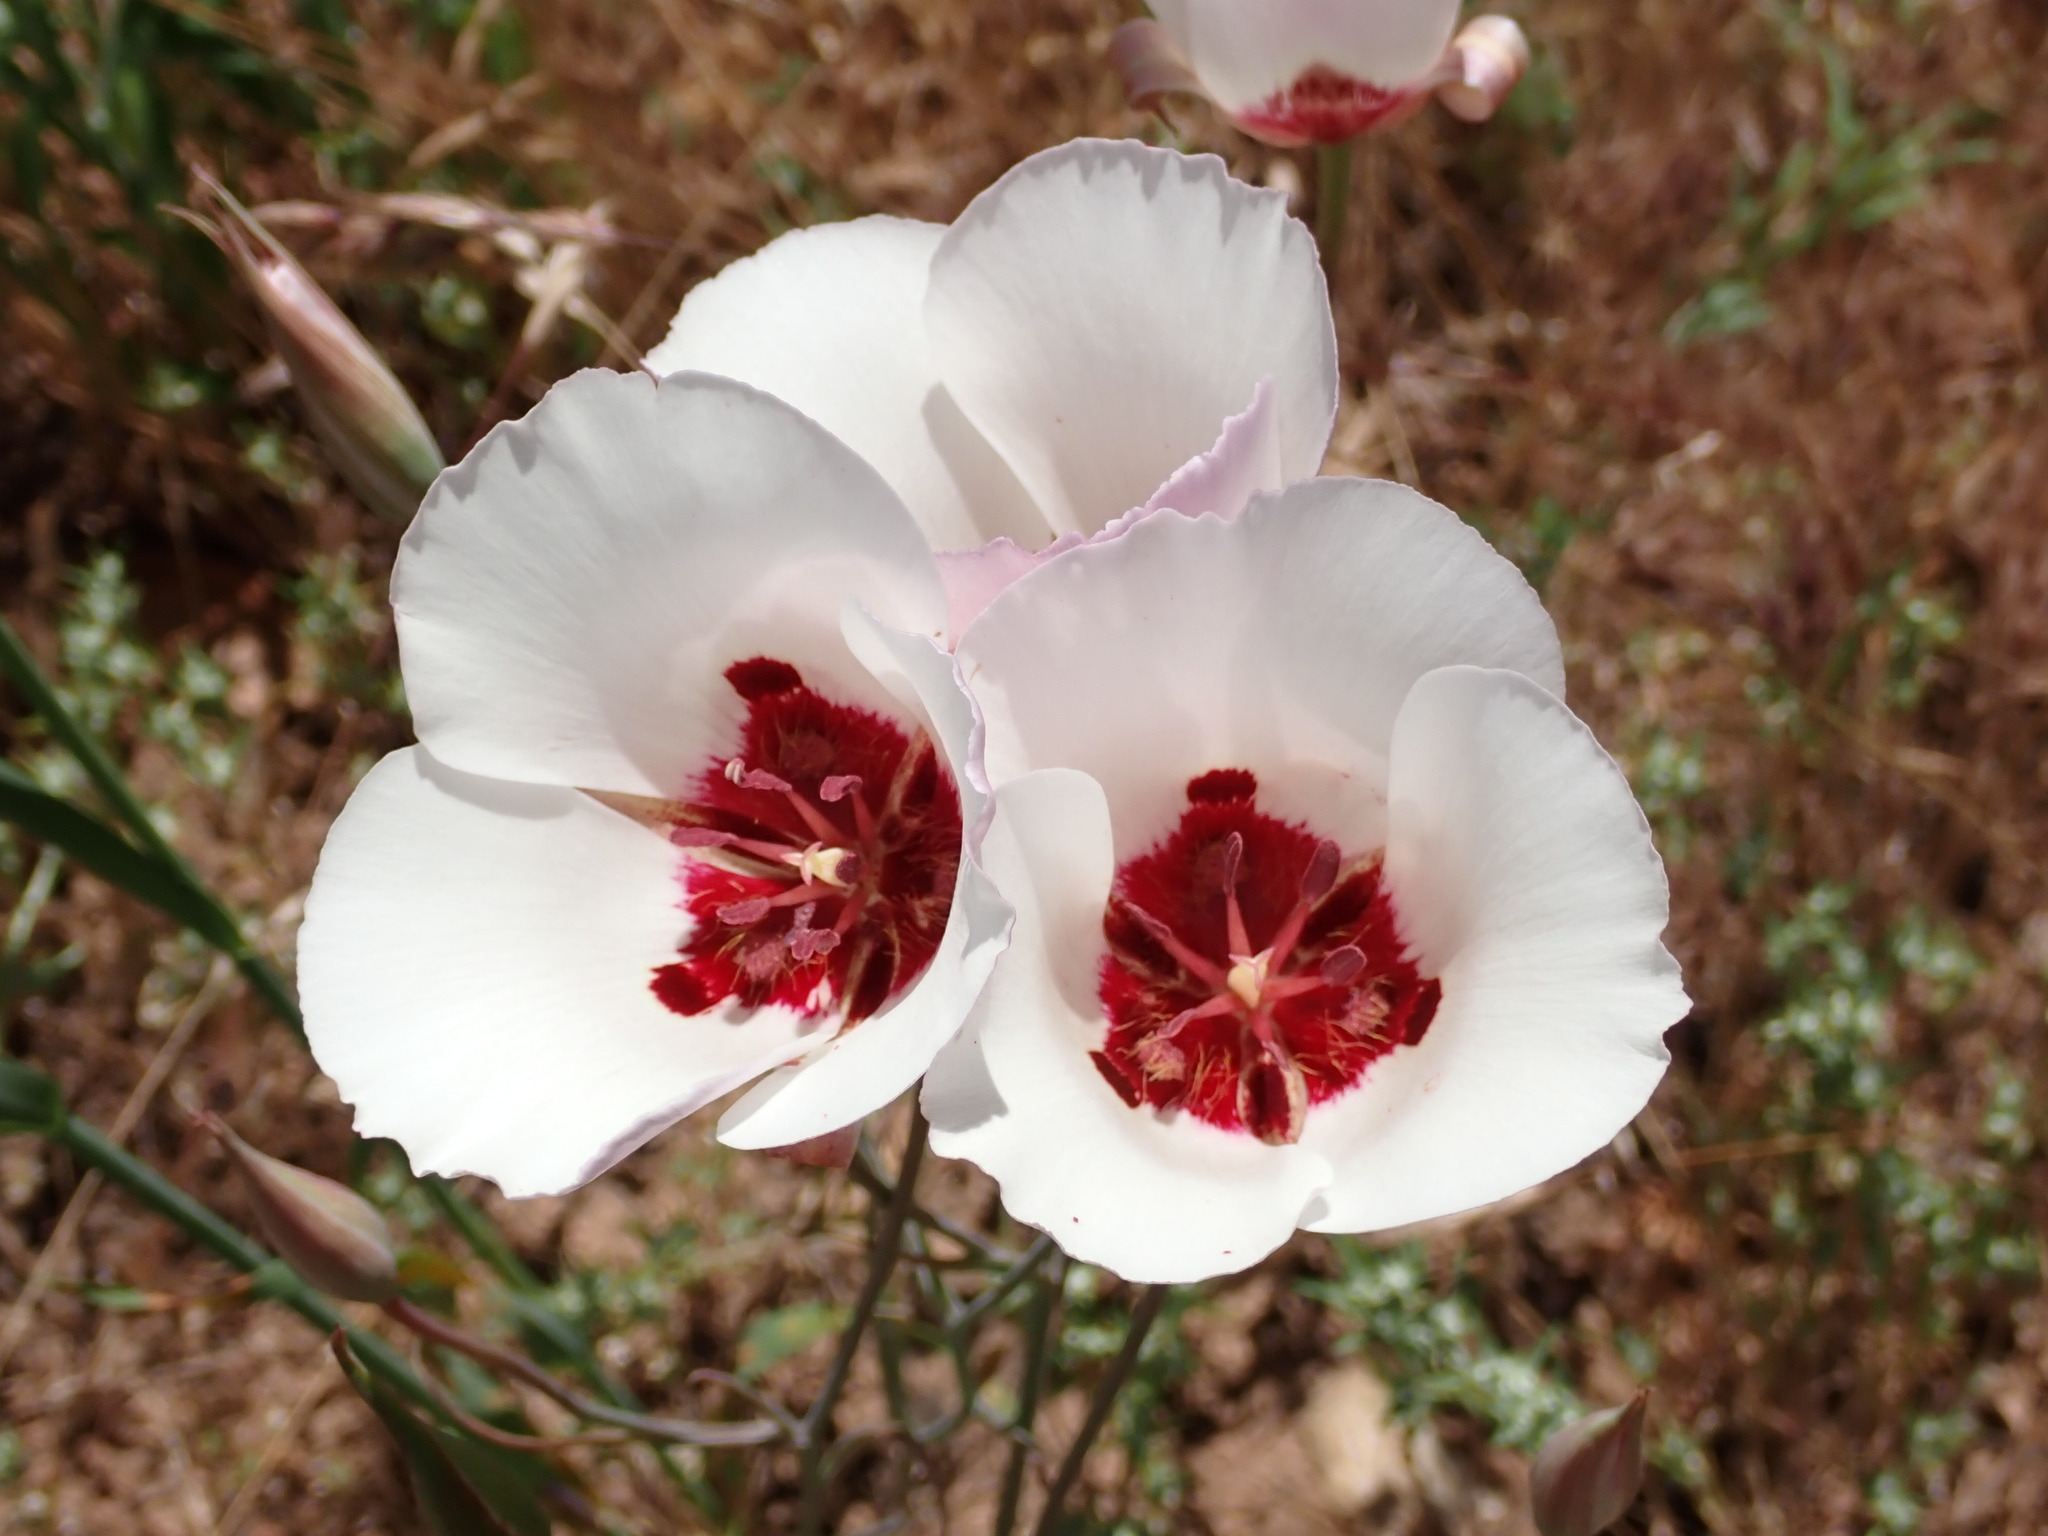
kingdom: Plantae
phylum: Tracheophyta
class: Liliopsida
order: Liliales
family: Liliaceae
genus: Calochortus
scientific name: Calochortus simulans
